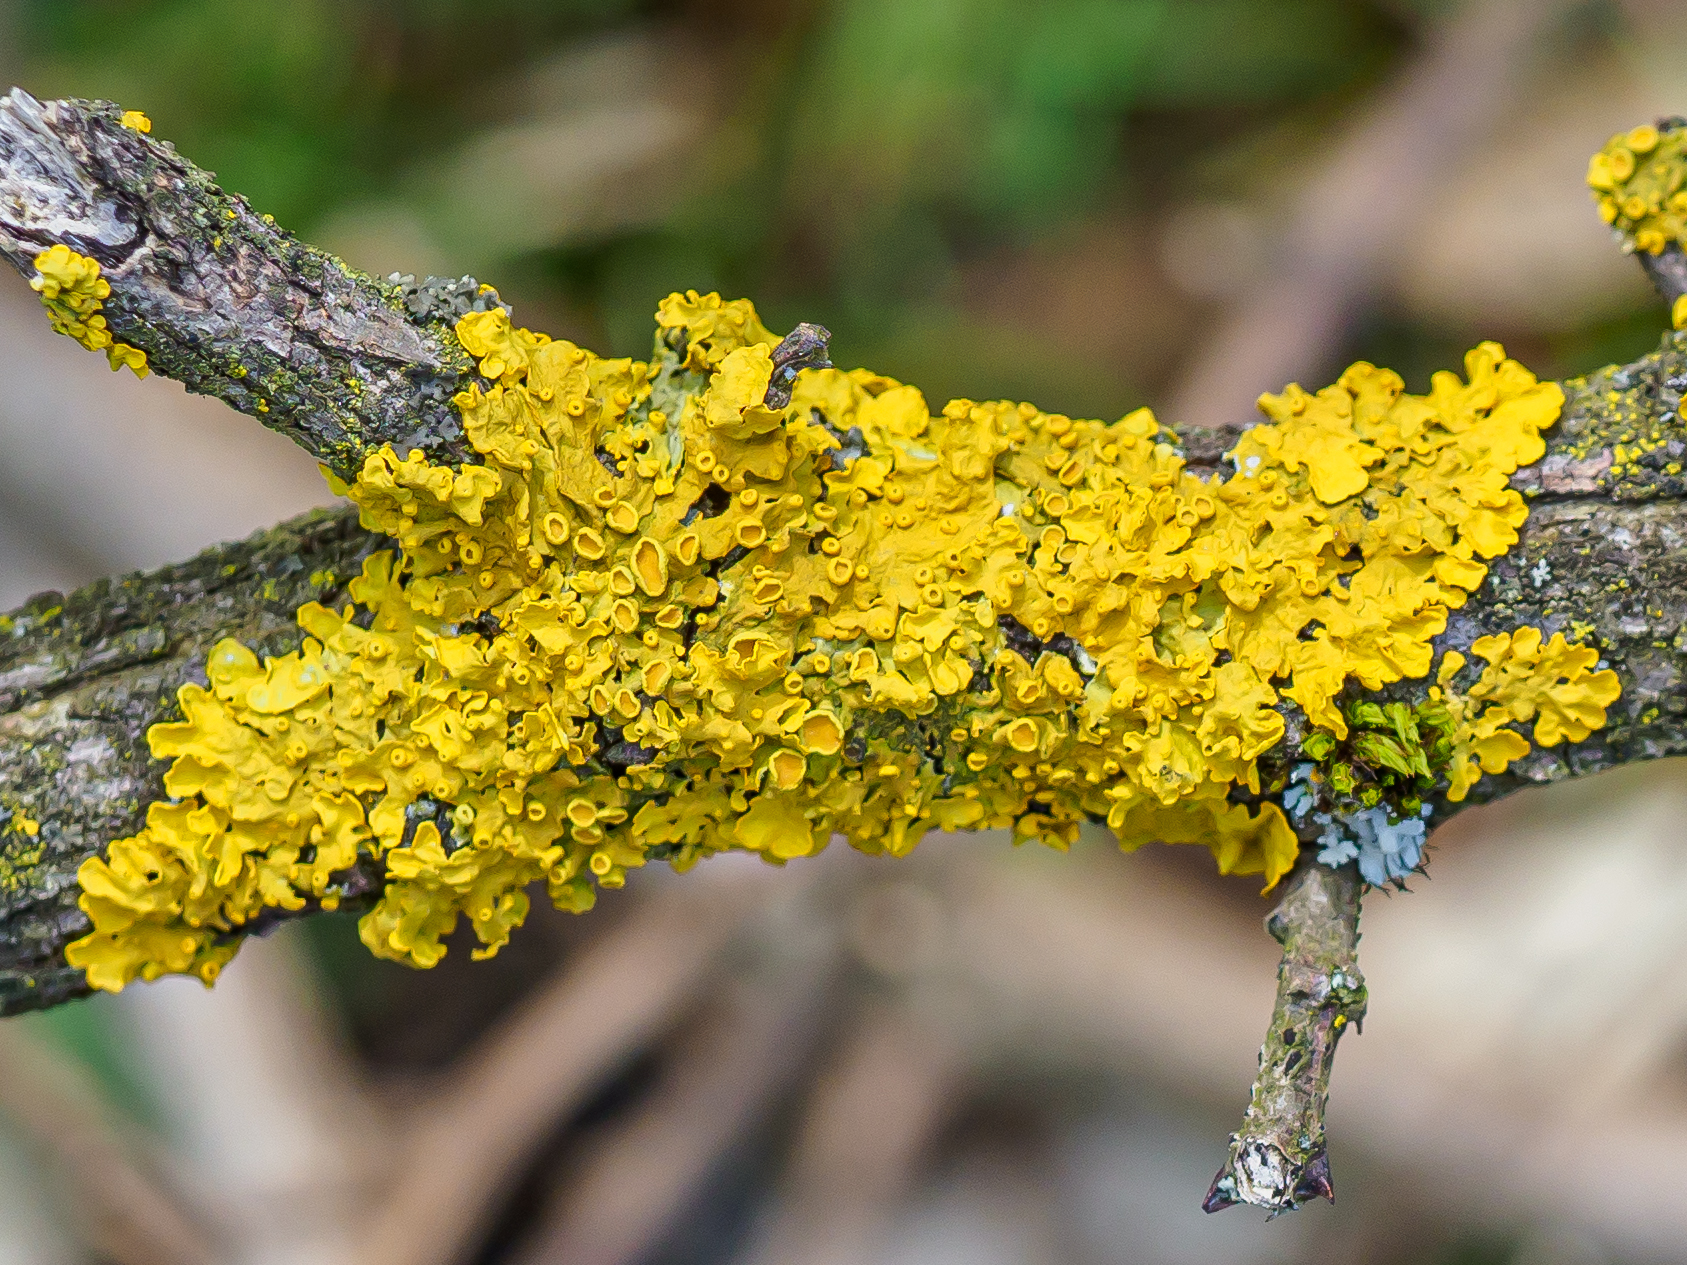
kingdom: Fungi
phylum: Ascomycota
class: Lecanoromycetes
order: Teloschistales
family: Teloschistaceae
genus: Xanthoria
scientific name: Xanthoria parietina
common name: Common orange lichen
